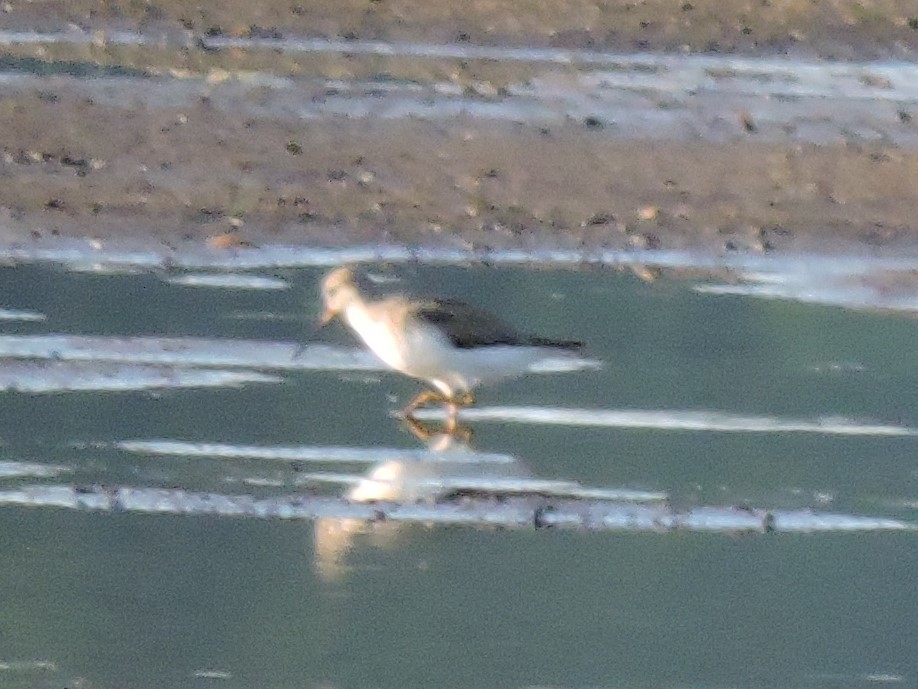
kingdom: Animalia
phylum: Chordata
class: Aves
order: Charadriiformes
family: Scolopacidae
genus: Xenus
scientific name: Xenus cinereus
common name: Terek sandpiper
